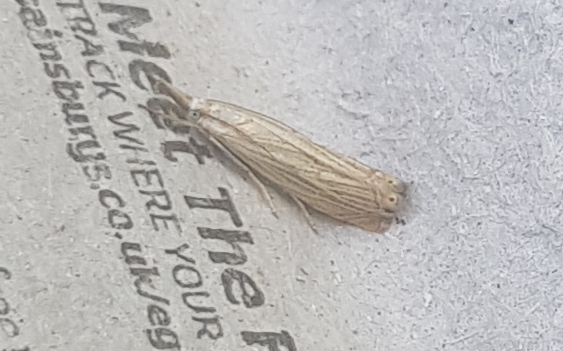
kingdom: Animalia
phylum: Arthropoda
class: Insecta
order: Lepidoptera
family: Crambidae
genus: Chrysoteuchia
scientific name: Chrysoteuchia culmella
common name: Garden grass-veneer
